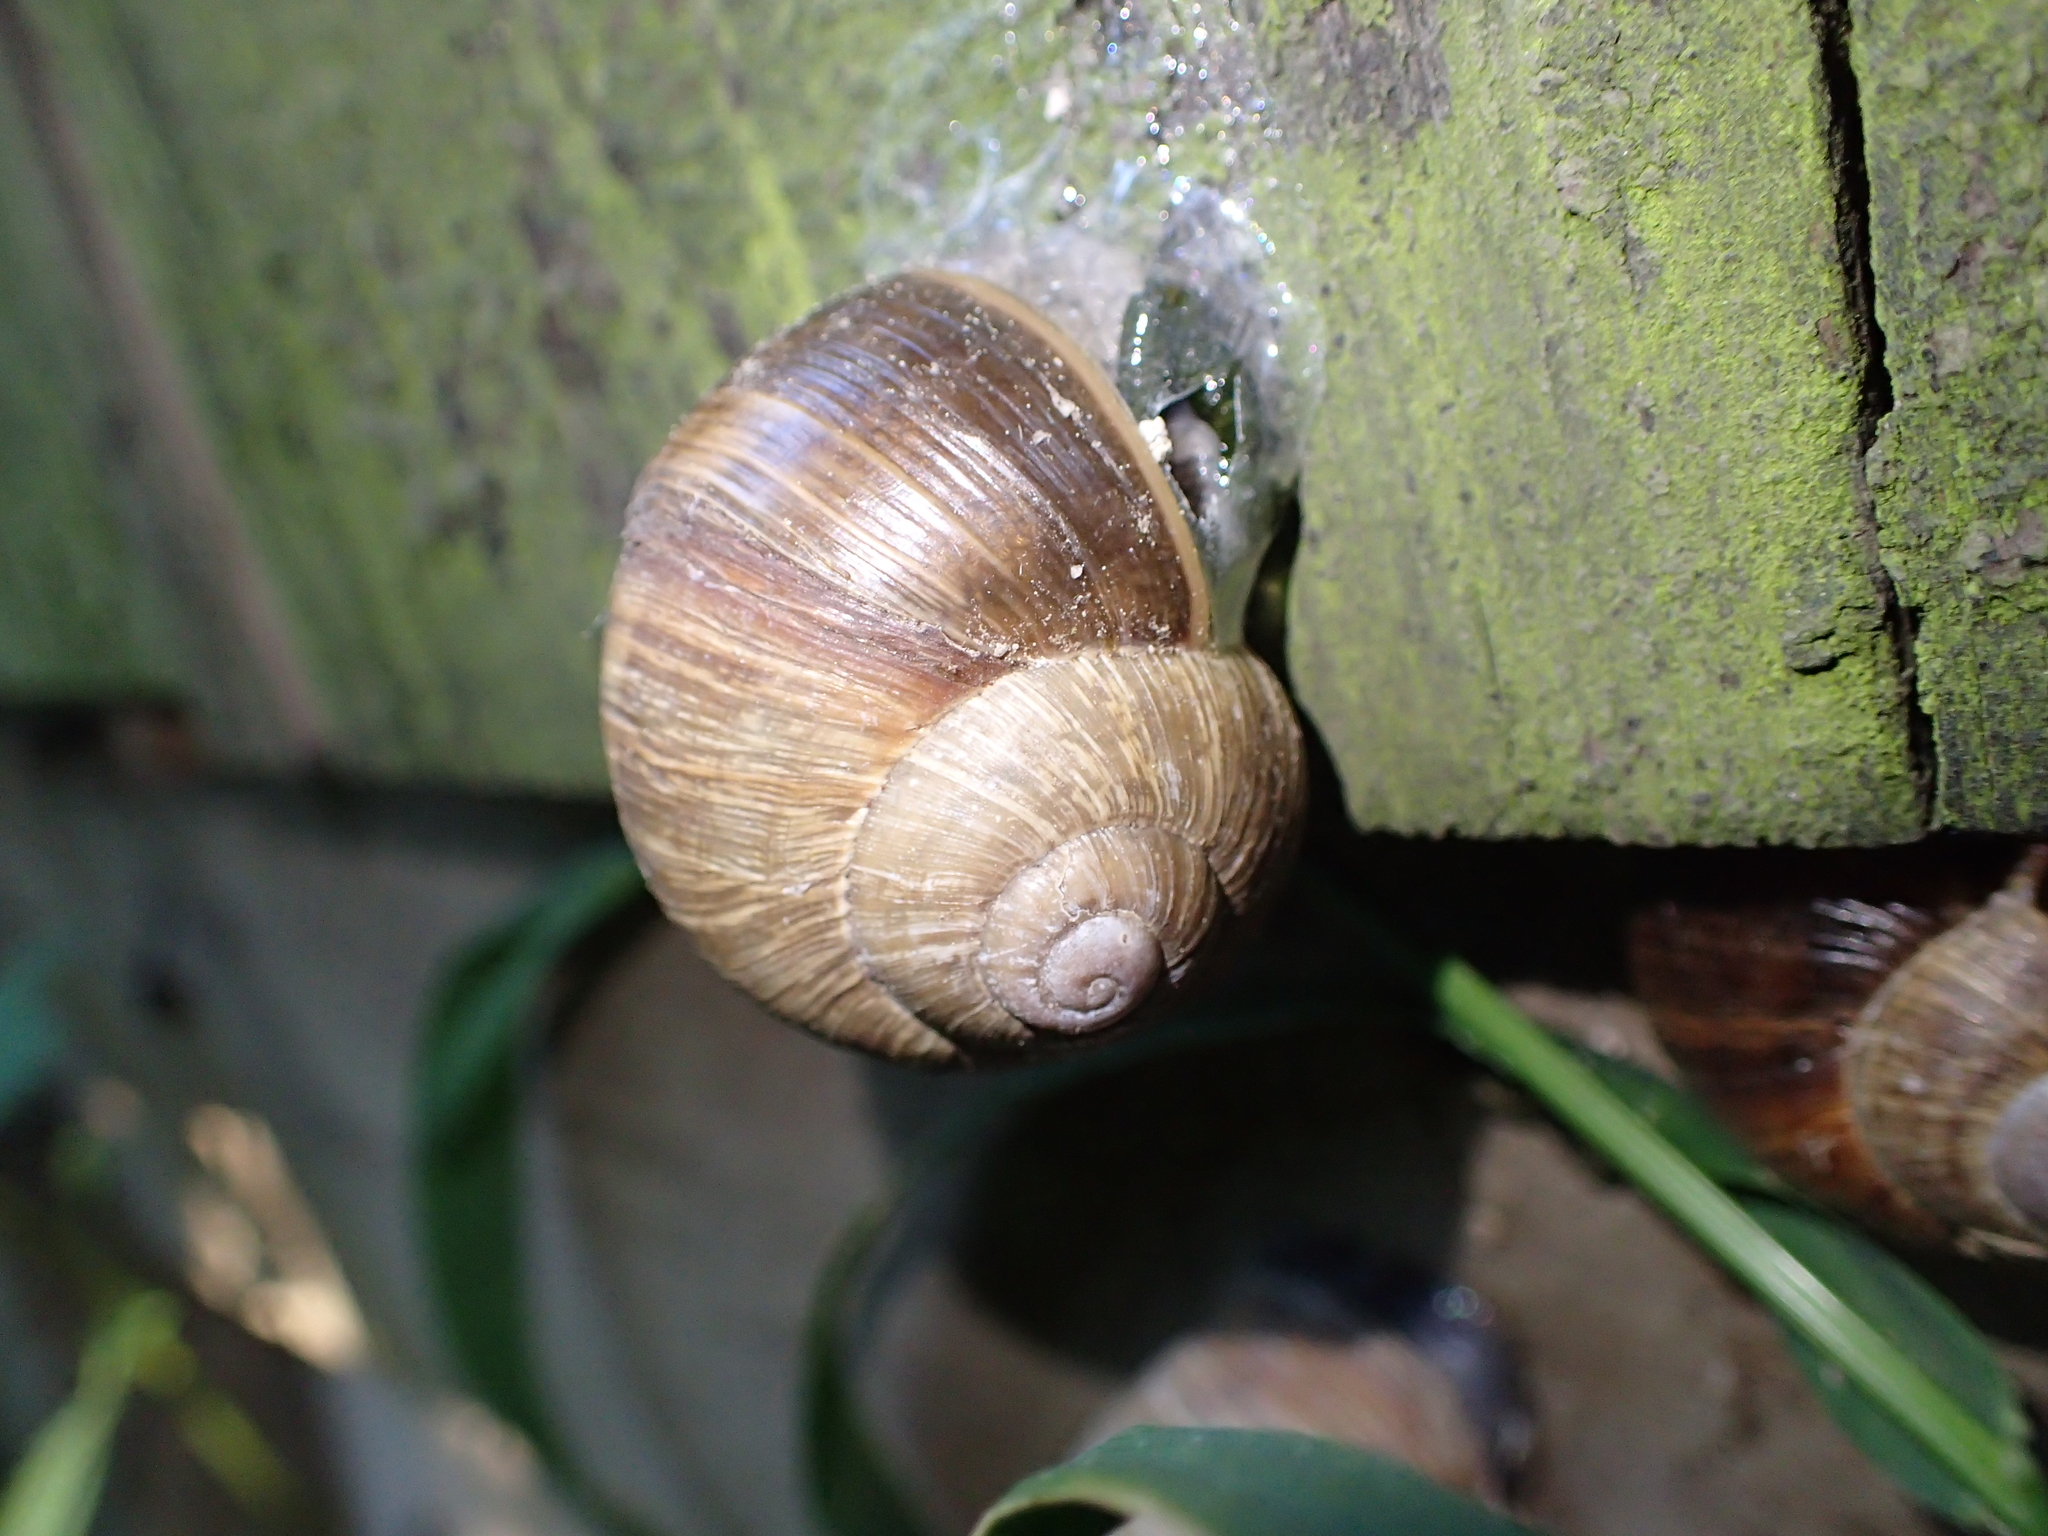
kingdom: Animalia
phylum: Mollusca
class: Gastropoda
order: Stylommatophora
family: Helicidae
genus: Helix
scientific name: Helix pomatia
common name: Roman snail
